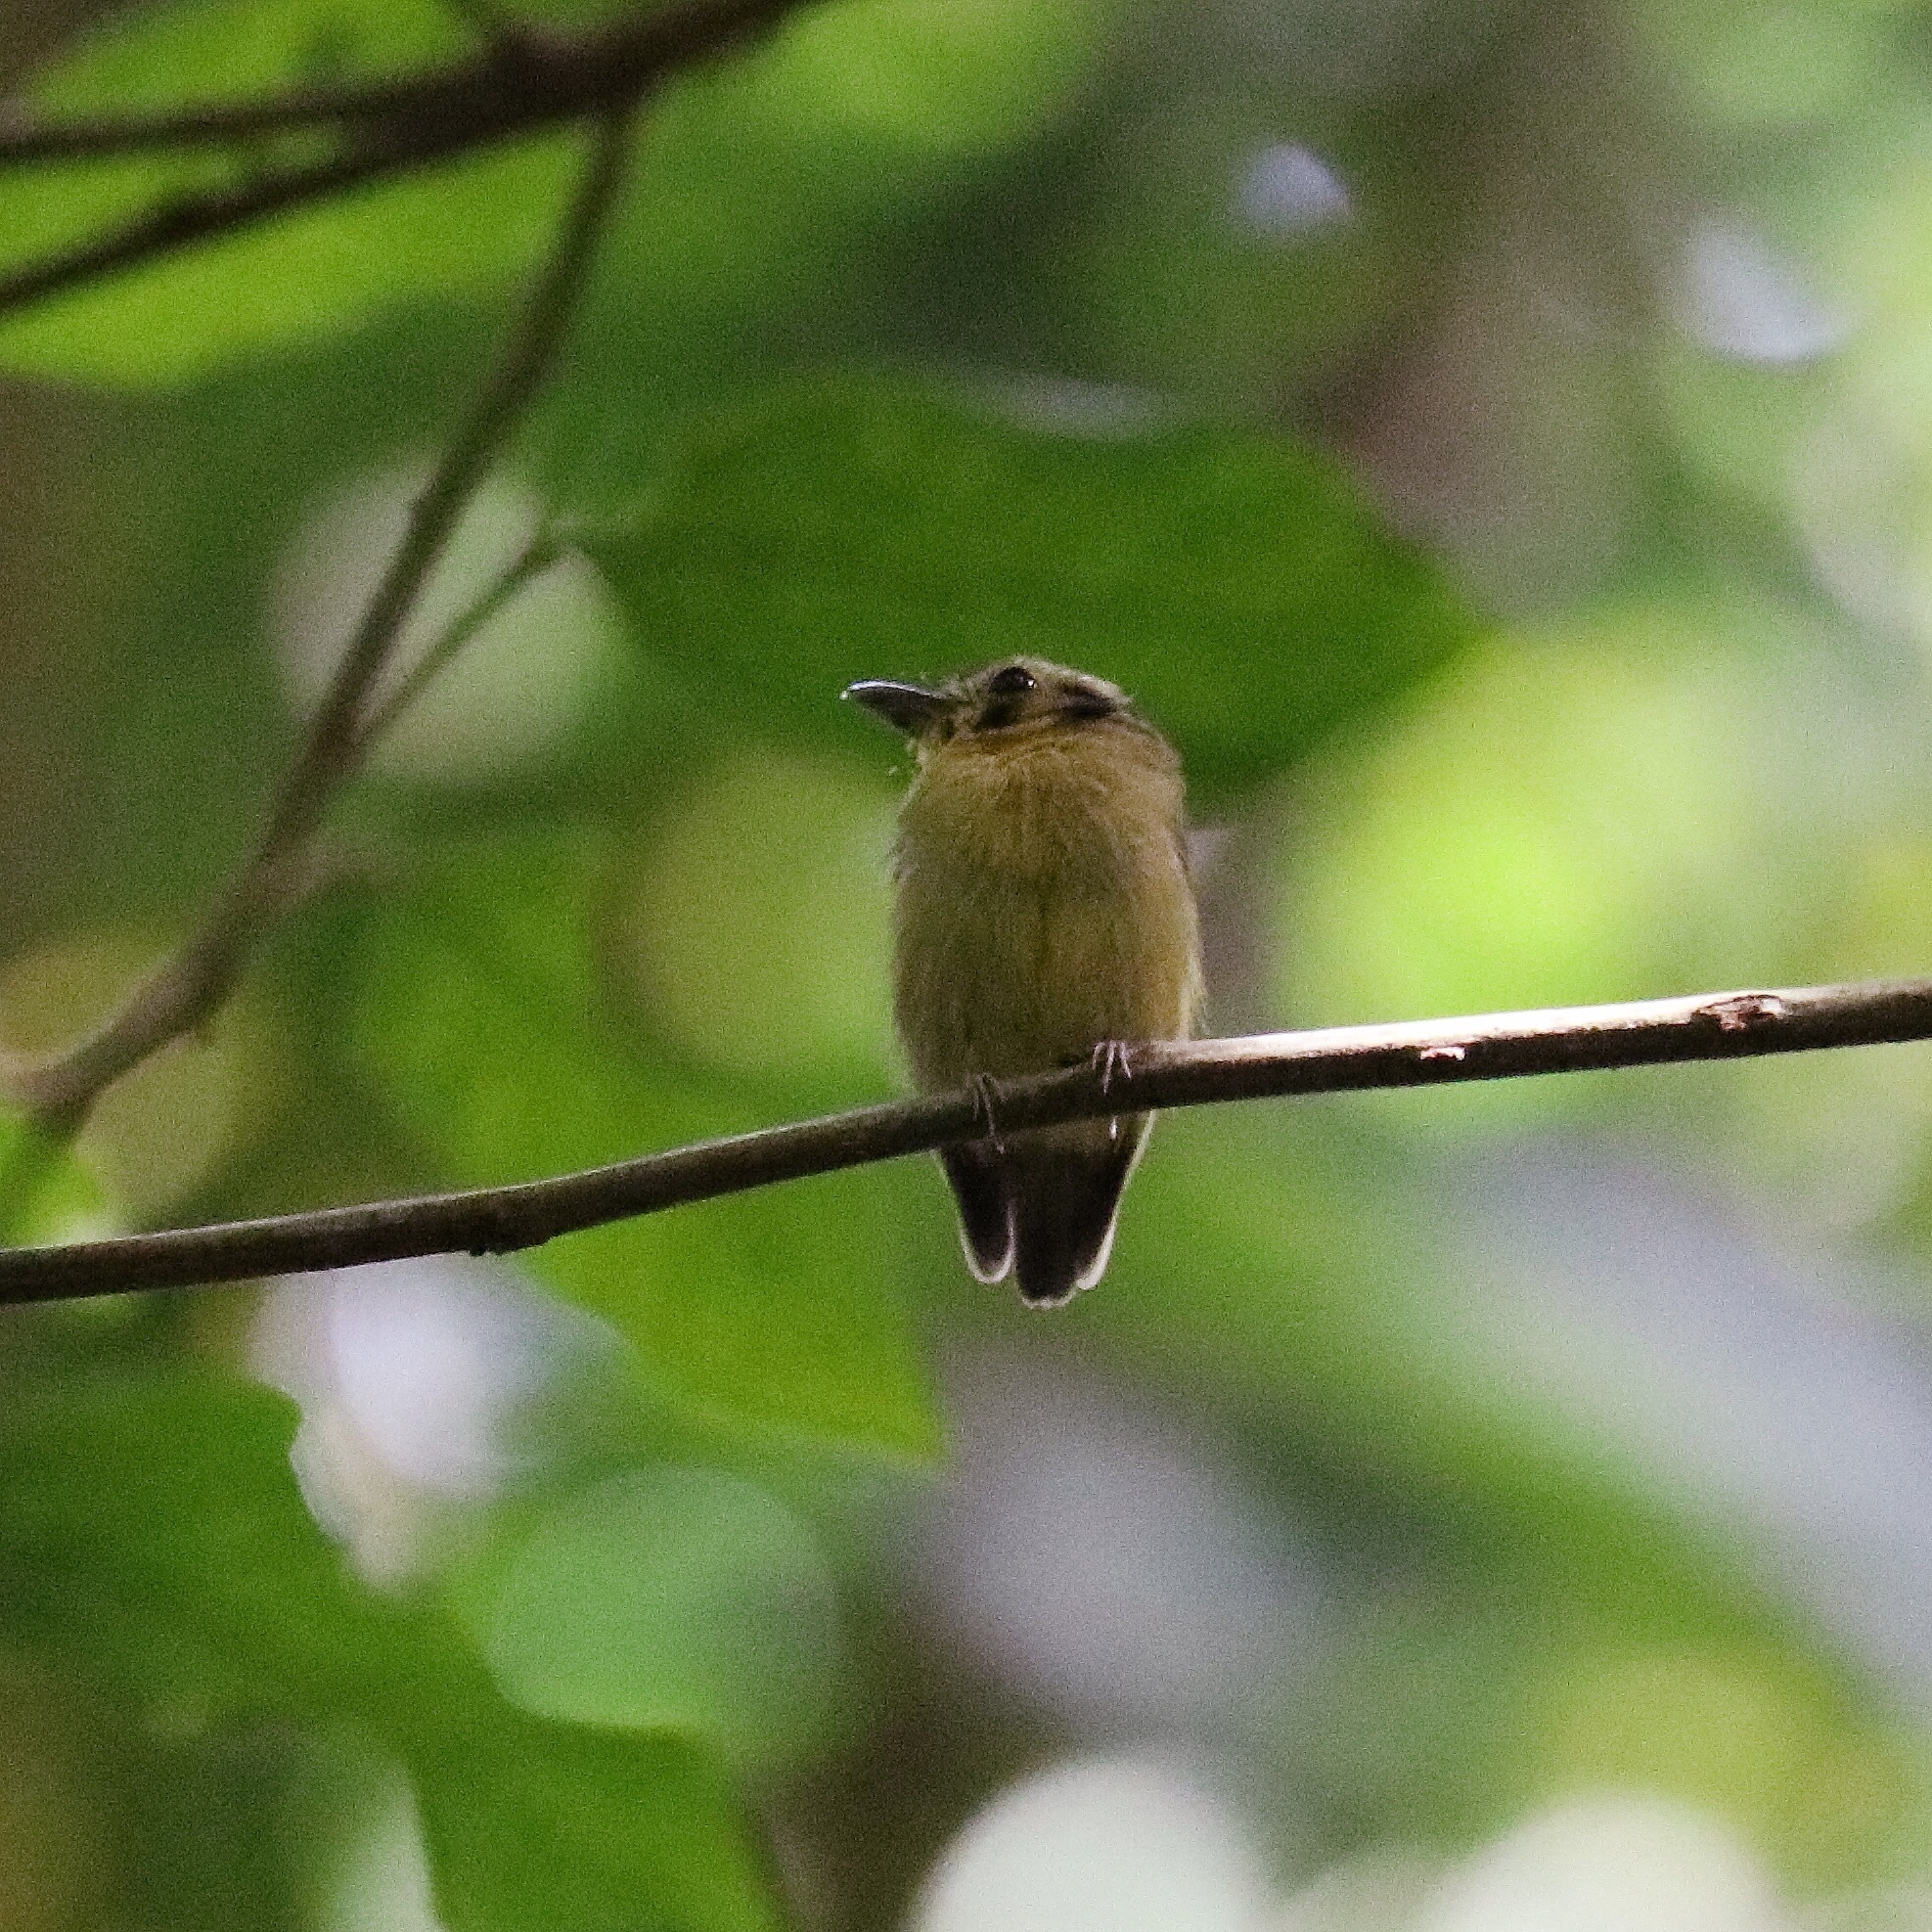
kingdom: Animalia
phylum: Chordata
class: Aves
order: Passeriformes
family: Tyrannidae
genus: Platyrinchus
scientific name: Platyrinchus coronatus
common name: Golden-crowned spadebill
